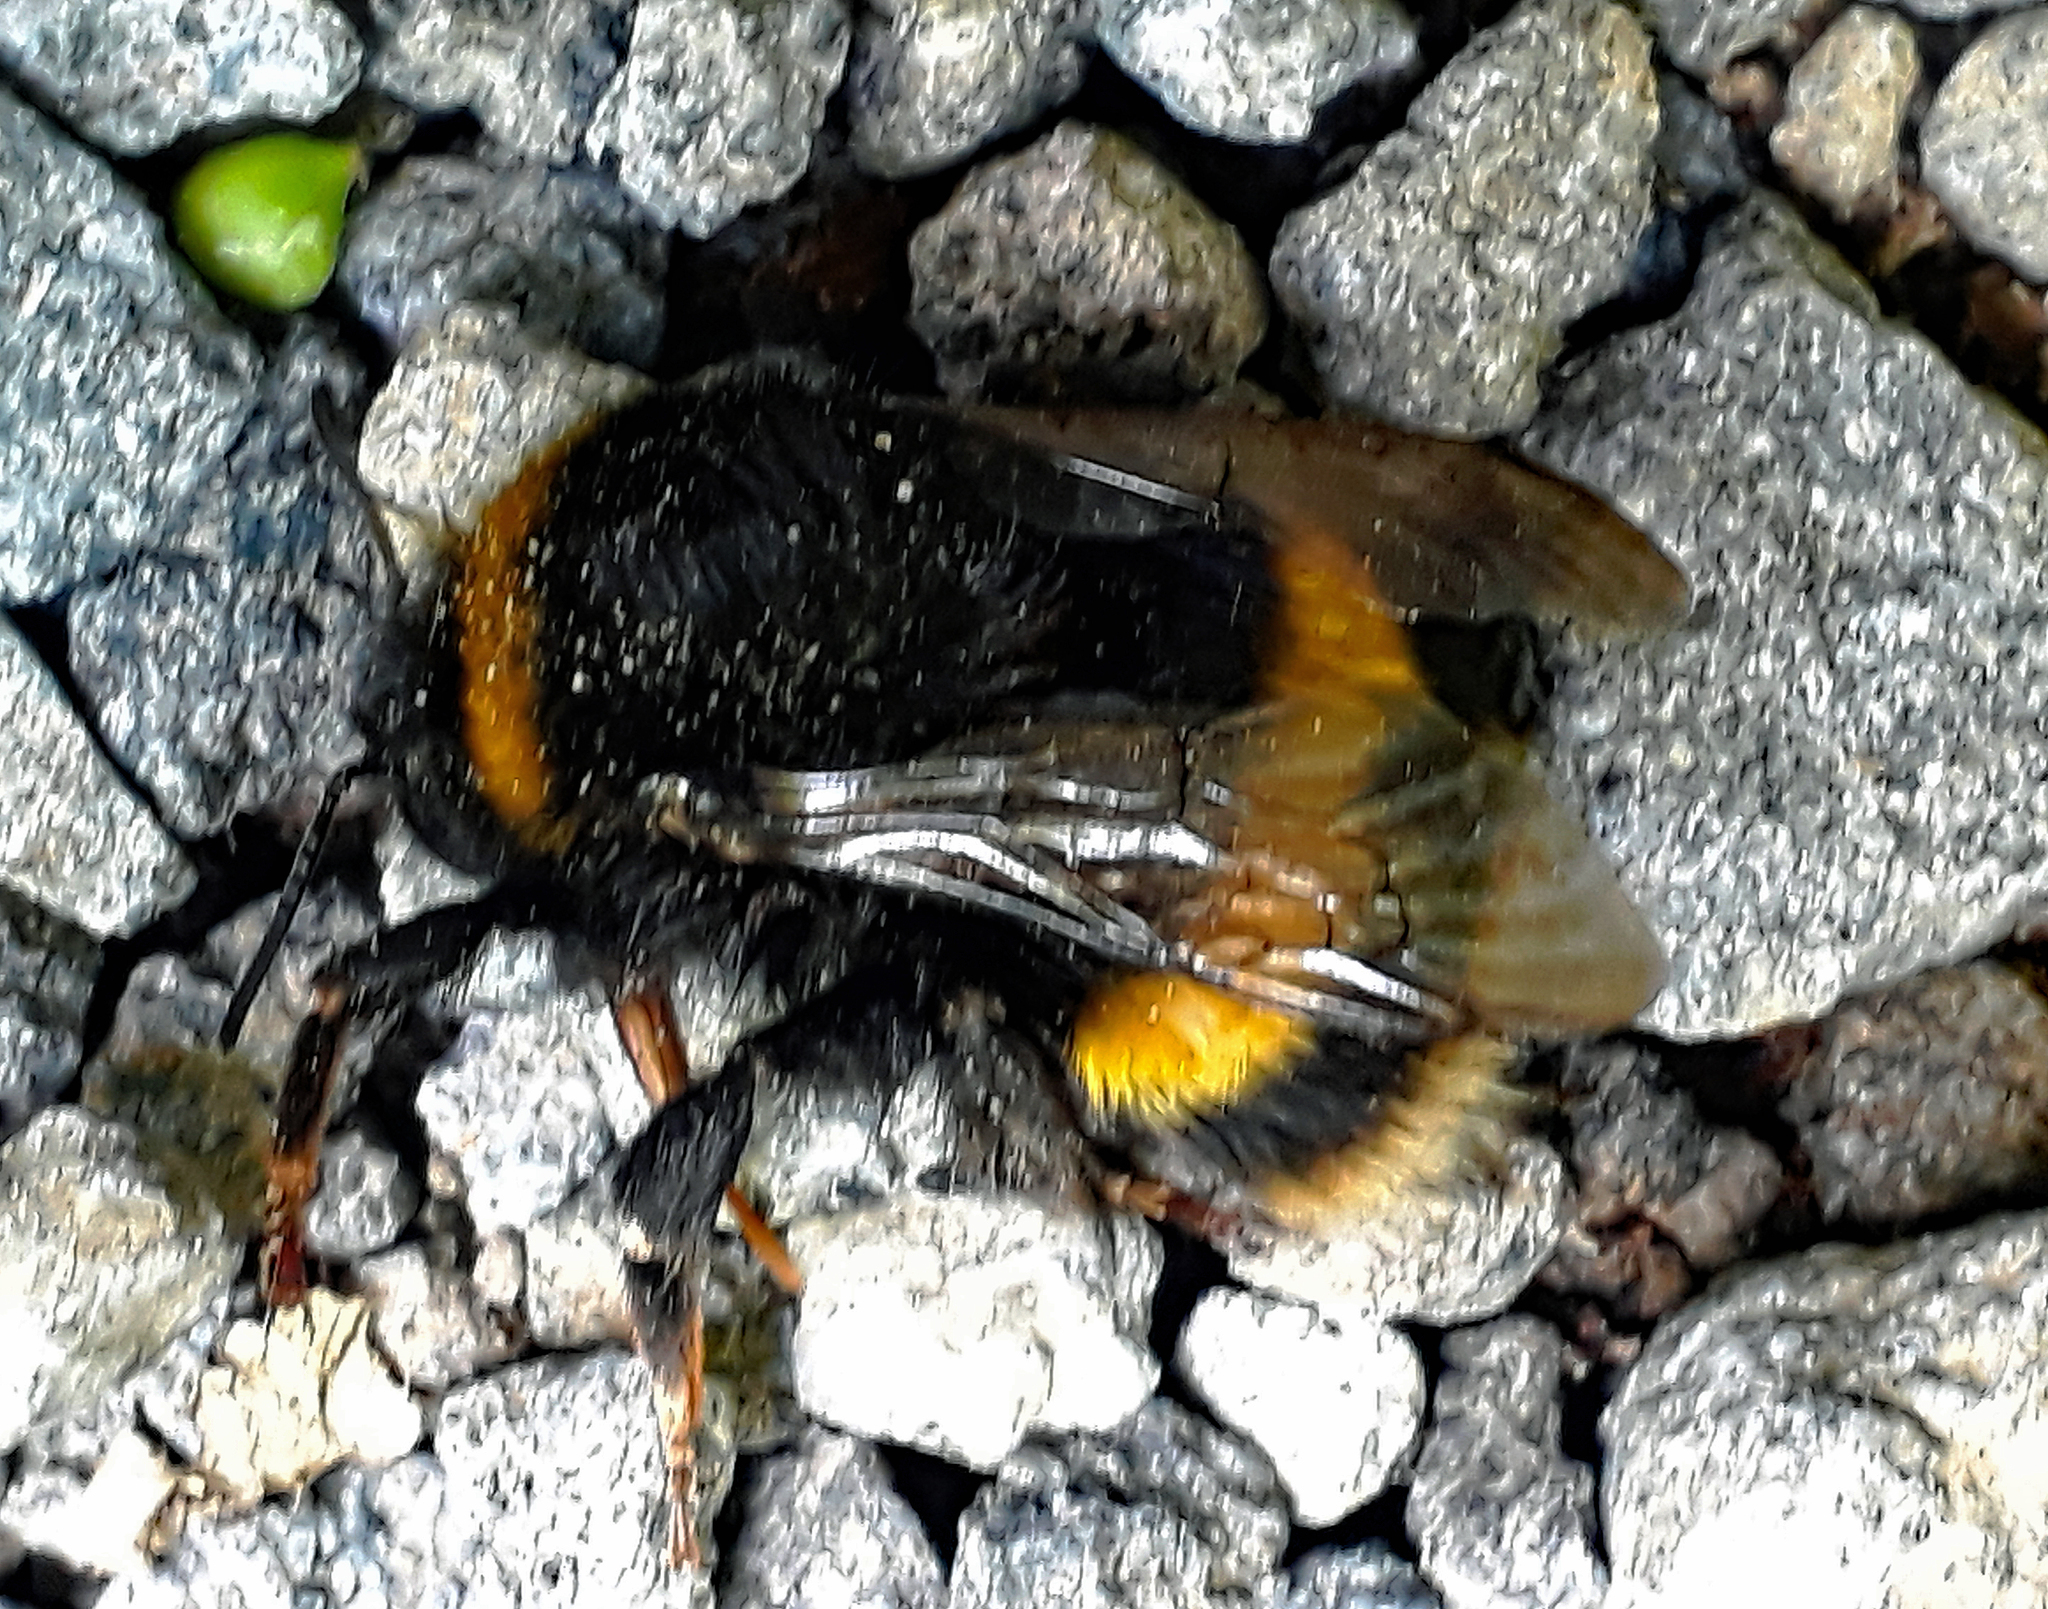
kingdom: Animalia
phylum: Arthropoda
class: Insecta
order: Hymenoptera
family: Apidae
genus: Bombus
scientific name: Bombus terrestris
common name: Buff-tailed bumblebee
